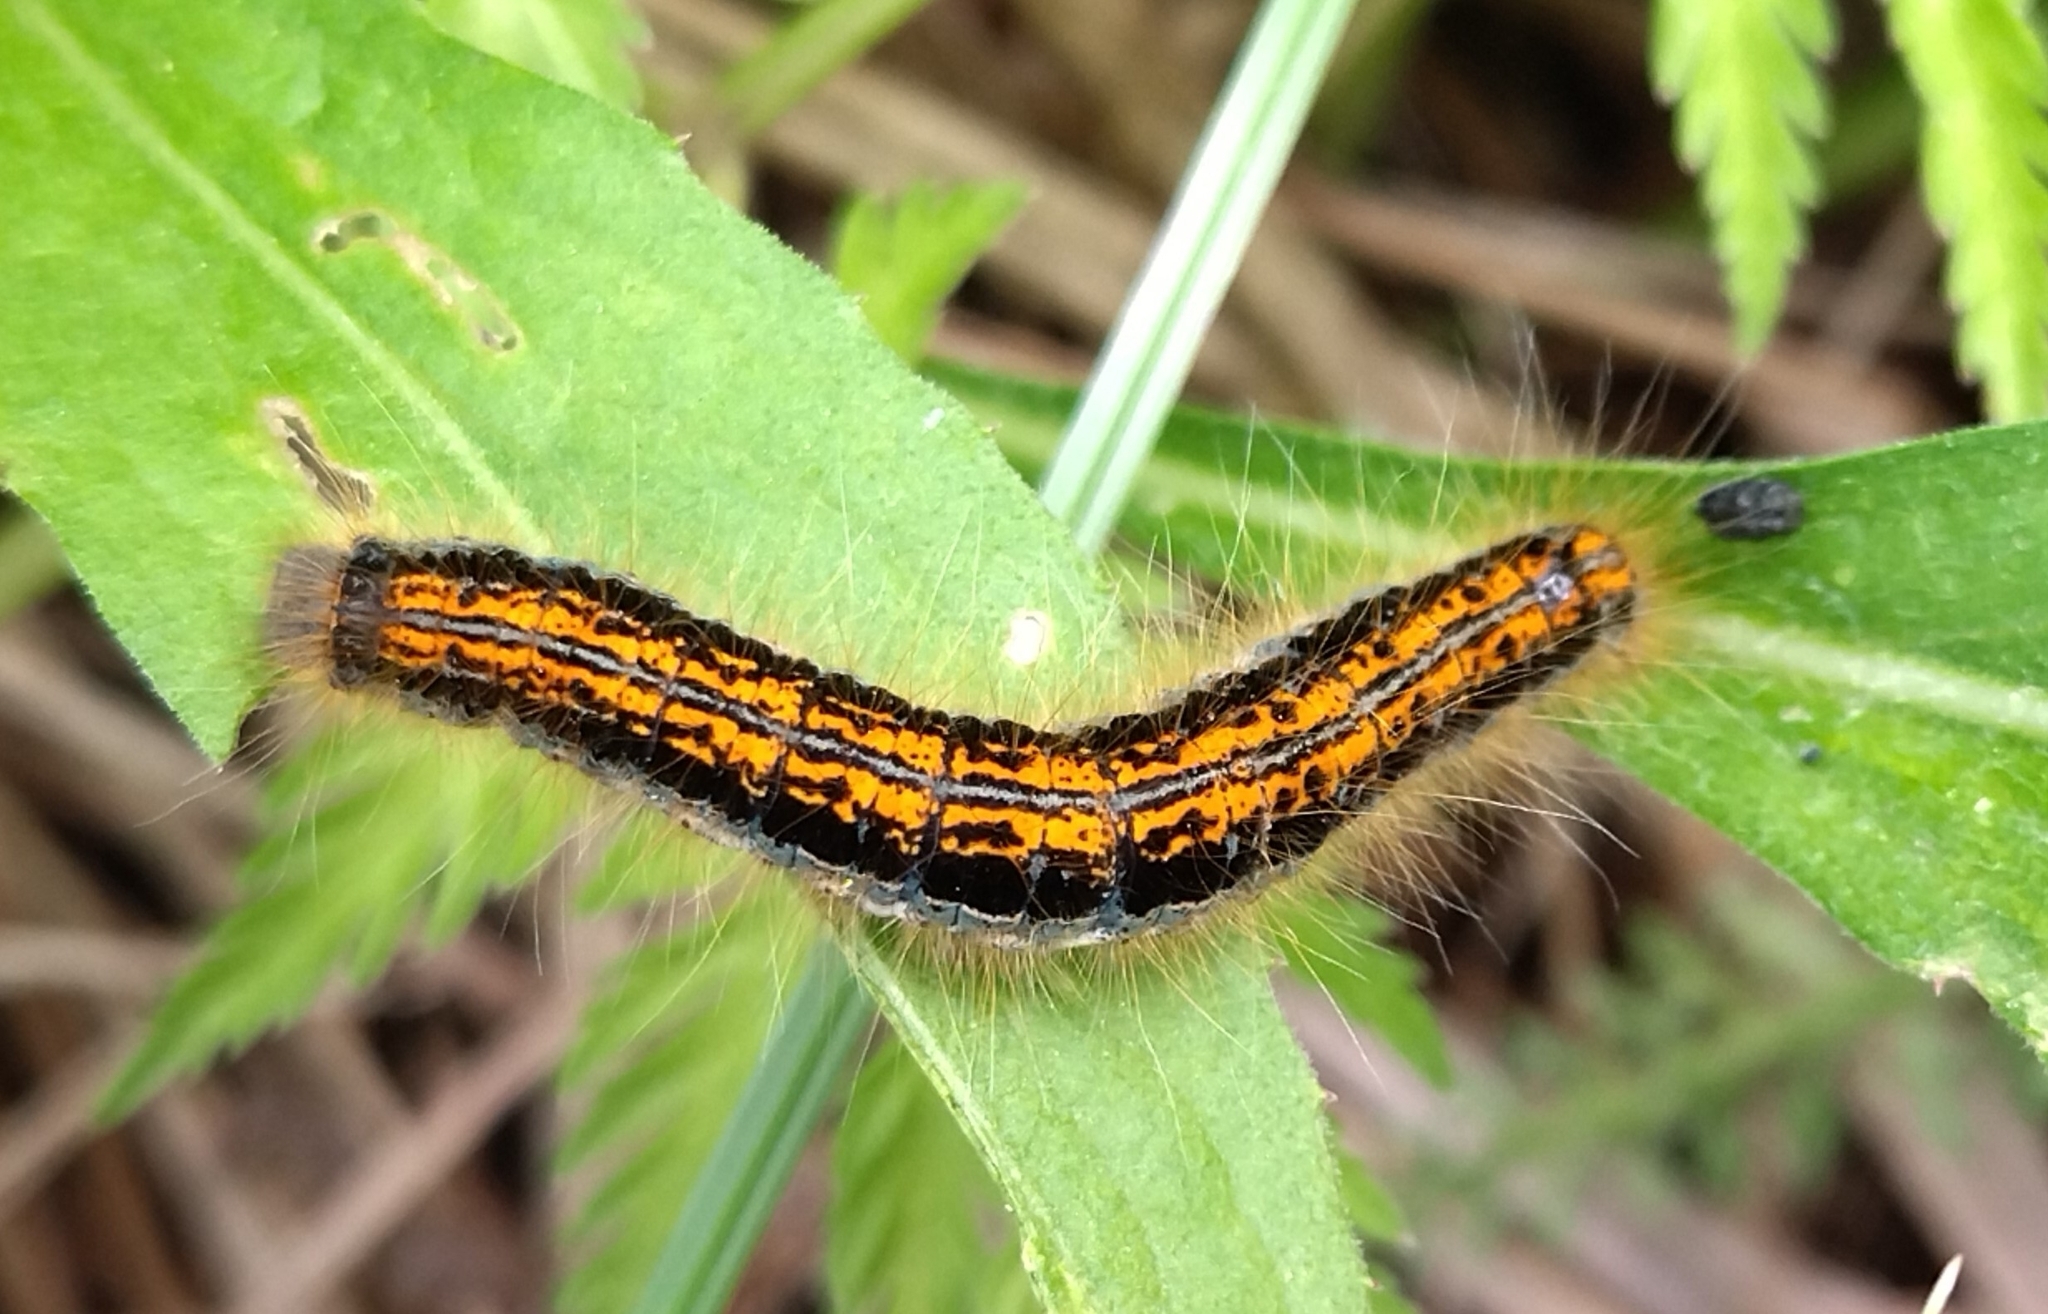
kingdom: Animalia
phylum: Arthropoda
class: Insecta
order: Lepidoptera
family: Lasiocampidae
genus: Malacosoma
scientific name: Malacosoma castrense
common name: Ground lackey
